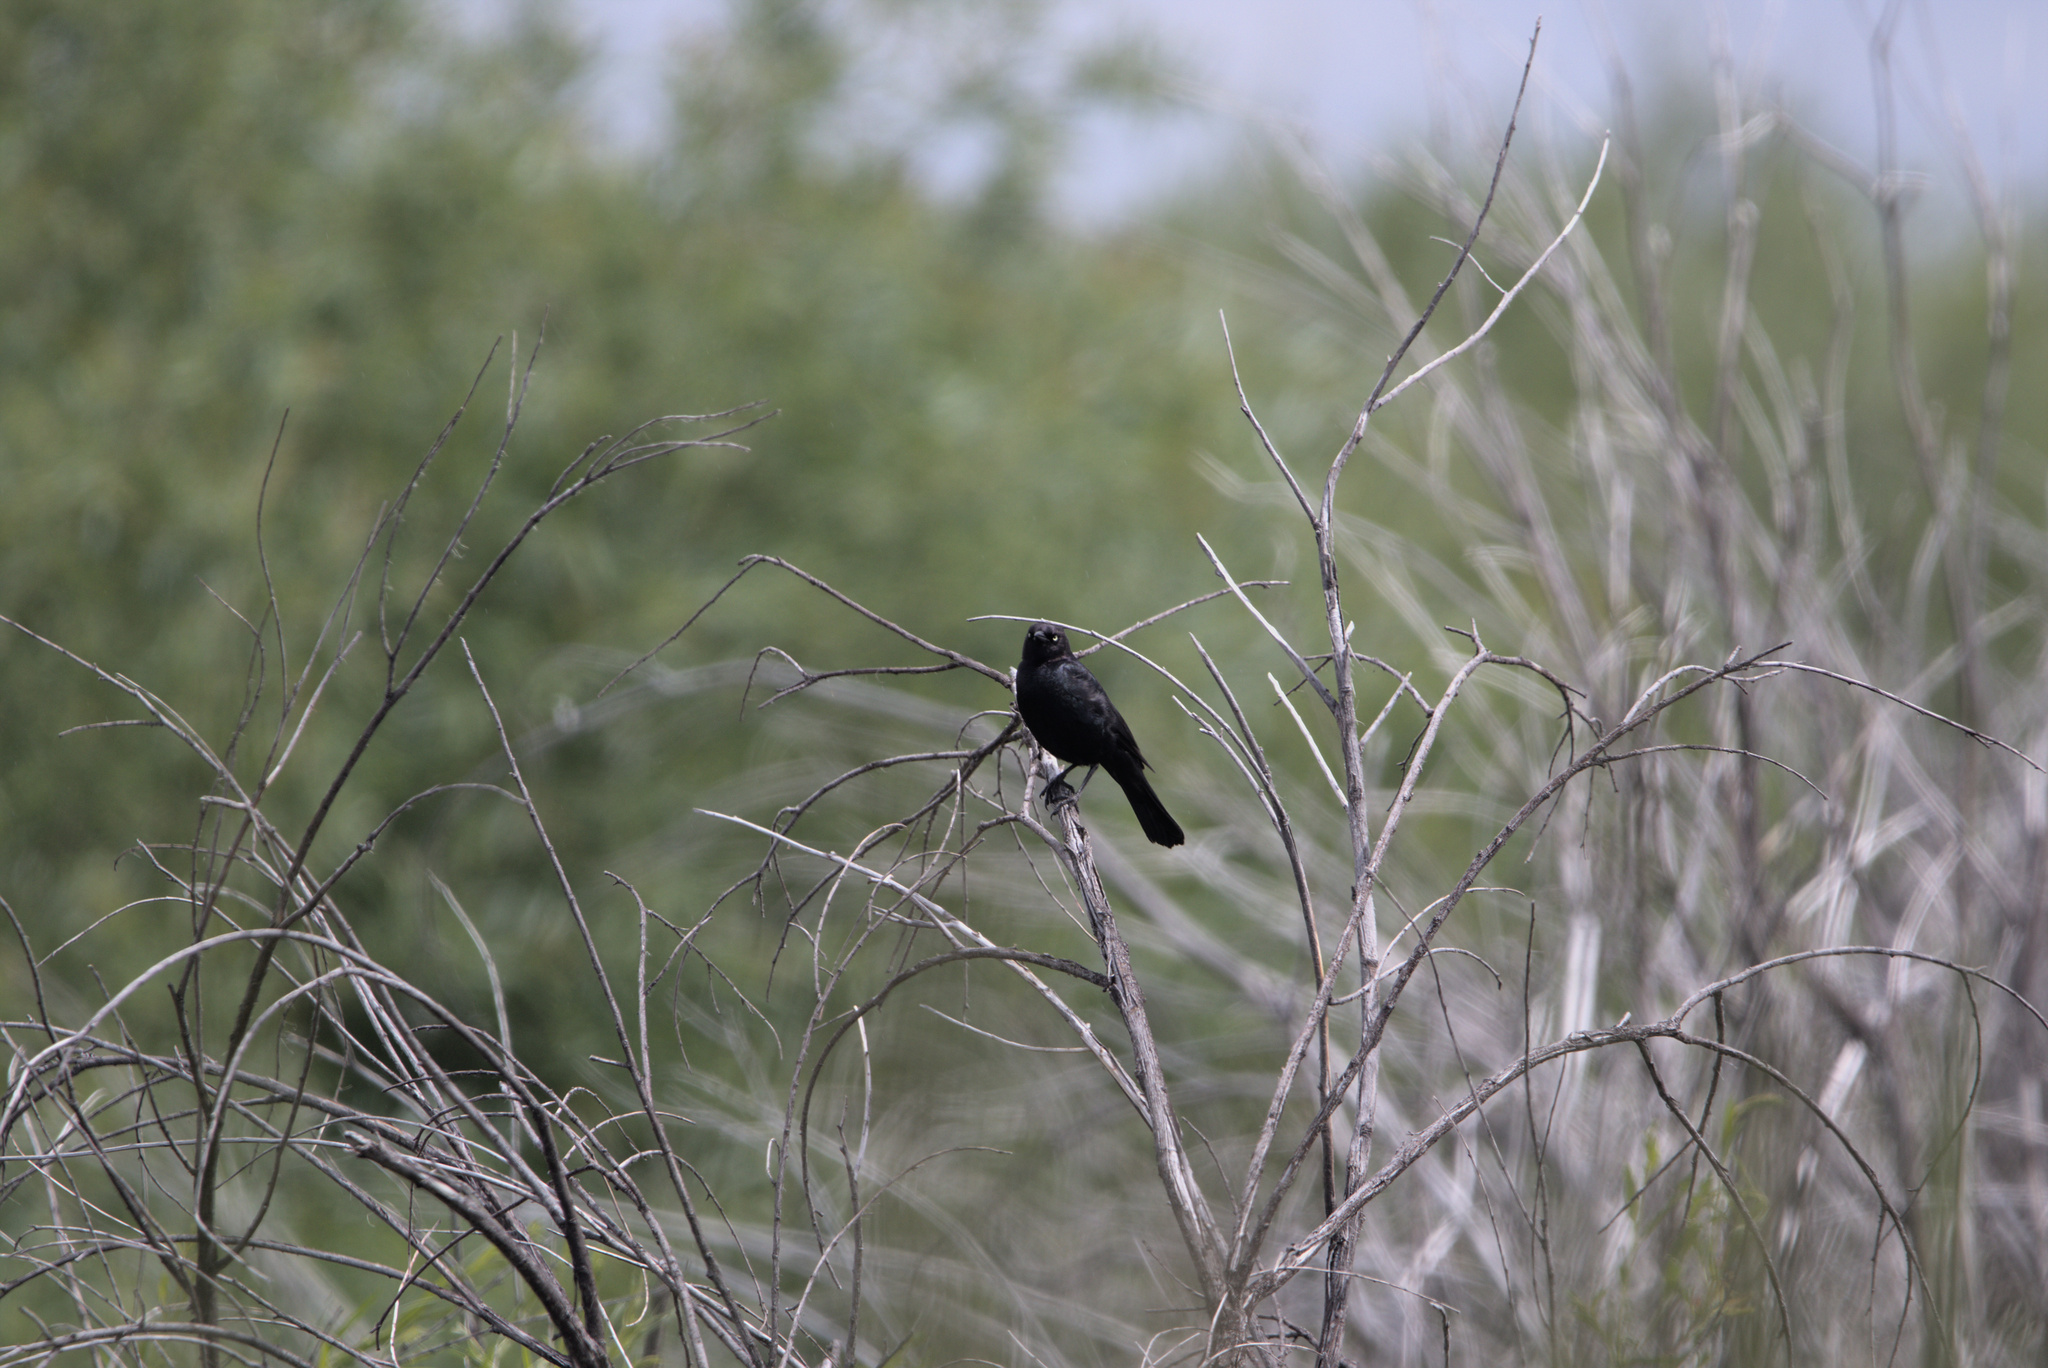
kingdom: Animalia
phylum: Chordata
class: Aves
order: Passeriformes
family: Icteridae
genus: Euphagus
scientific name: Euphagus cyanocephalus
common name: Brewer's blackbird
